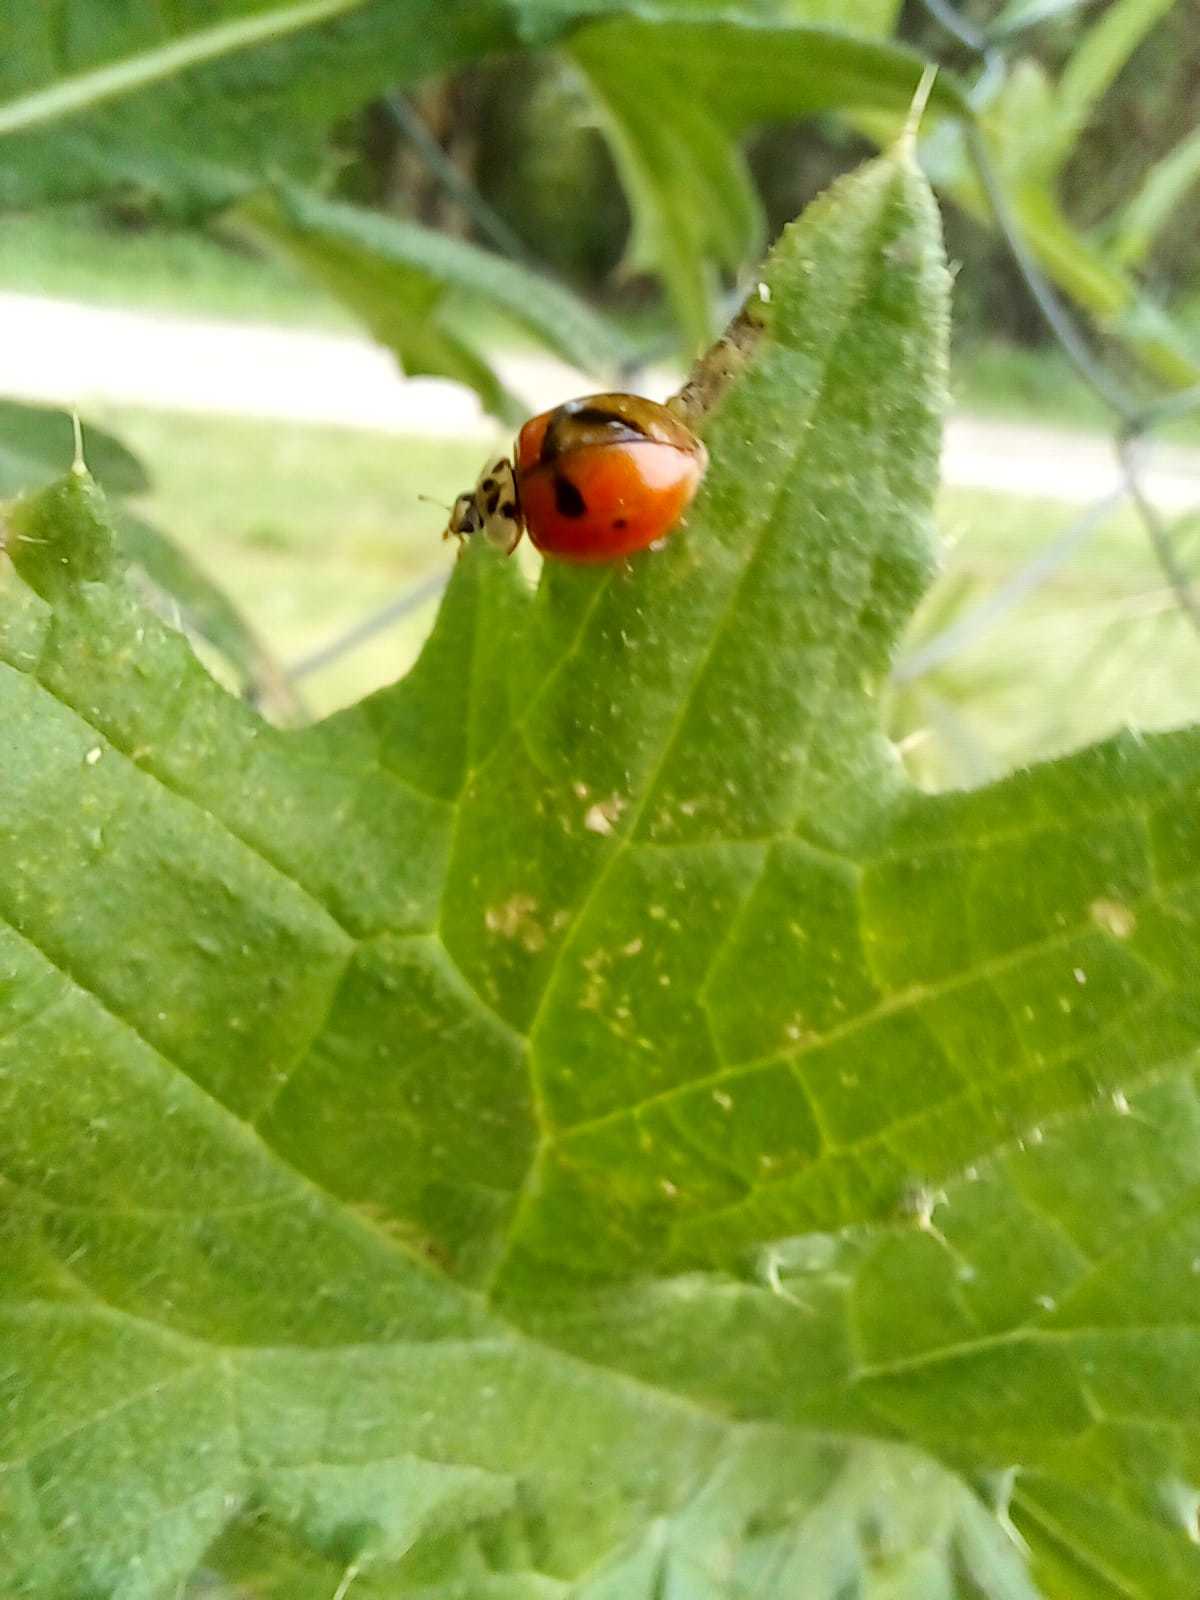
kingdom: Animalia
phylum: Arthropoda
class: Insecta
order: Coleoptera
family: Coccinellidae
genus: Harmonia
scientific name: Harmonia axyridis
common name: Harlequin ladybird
